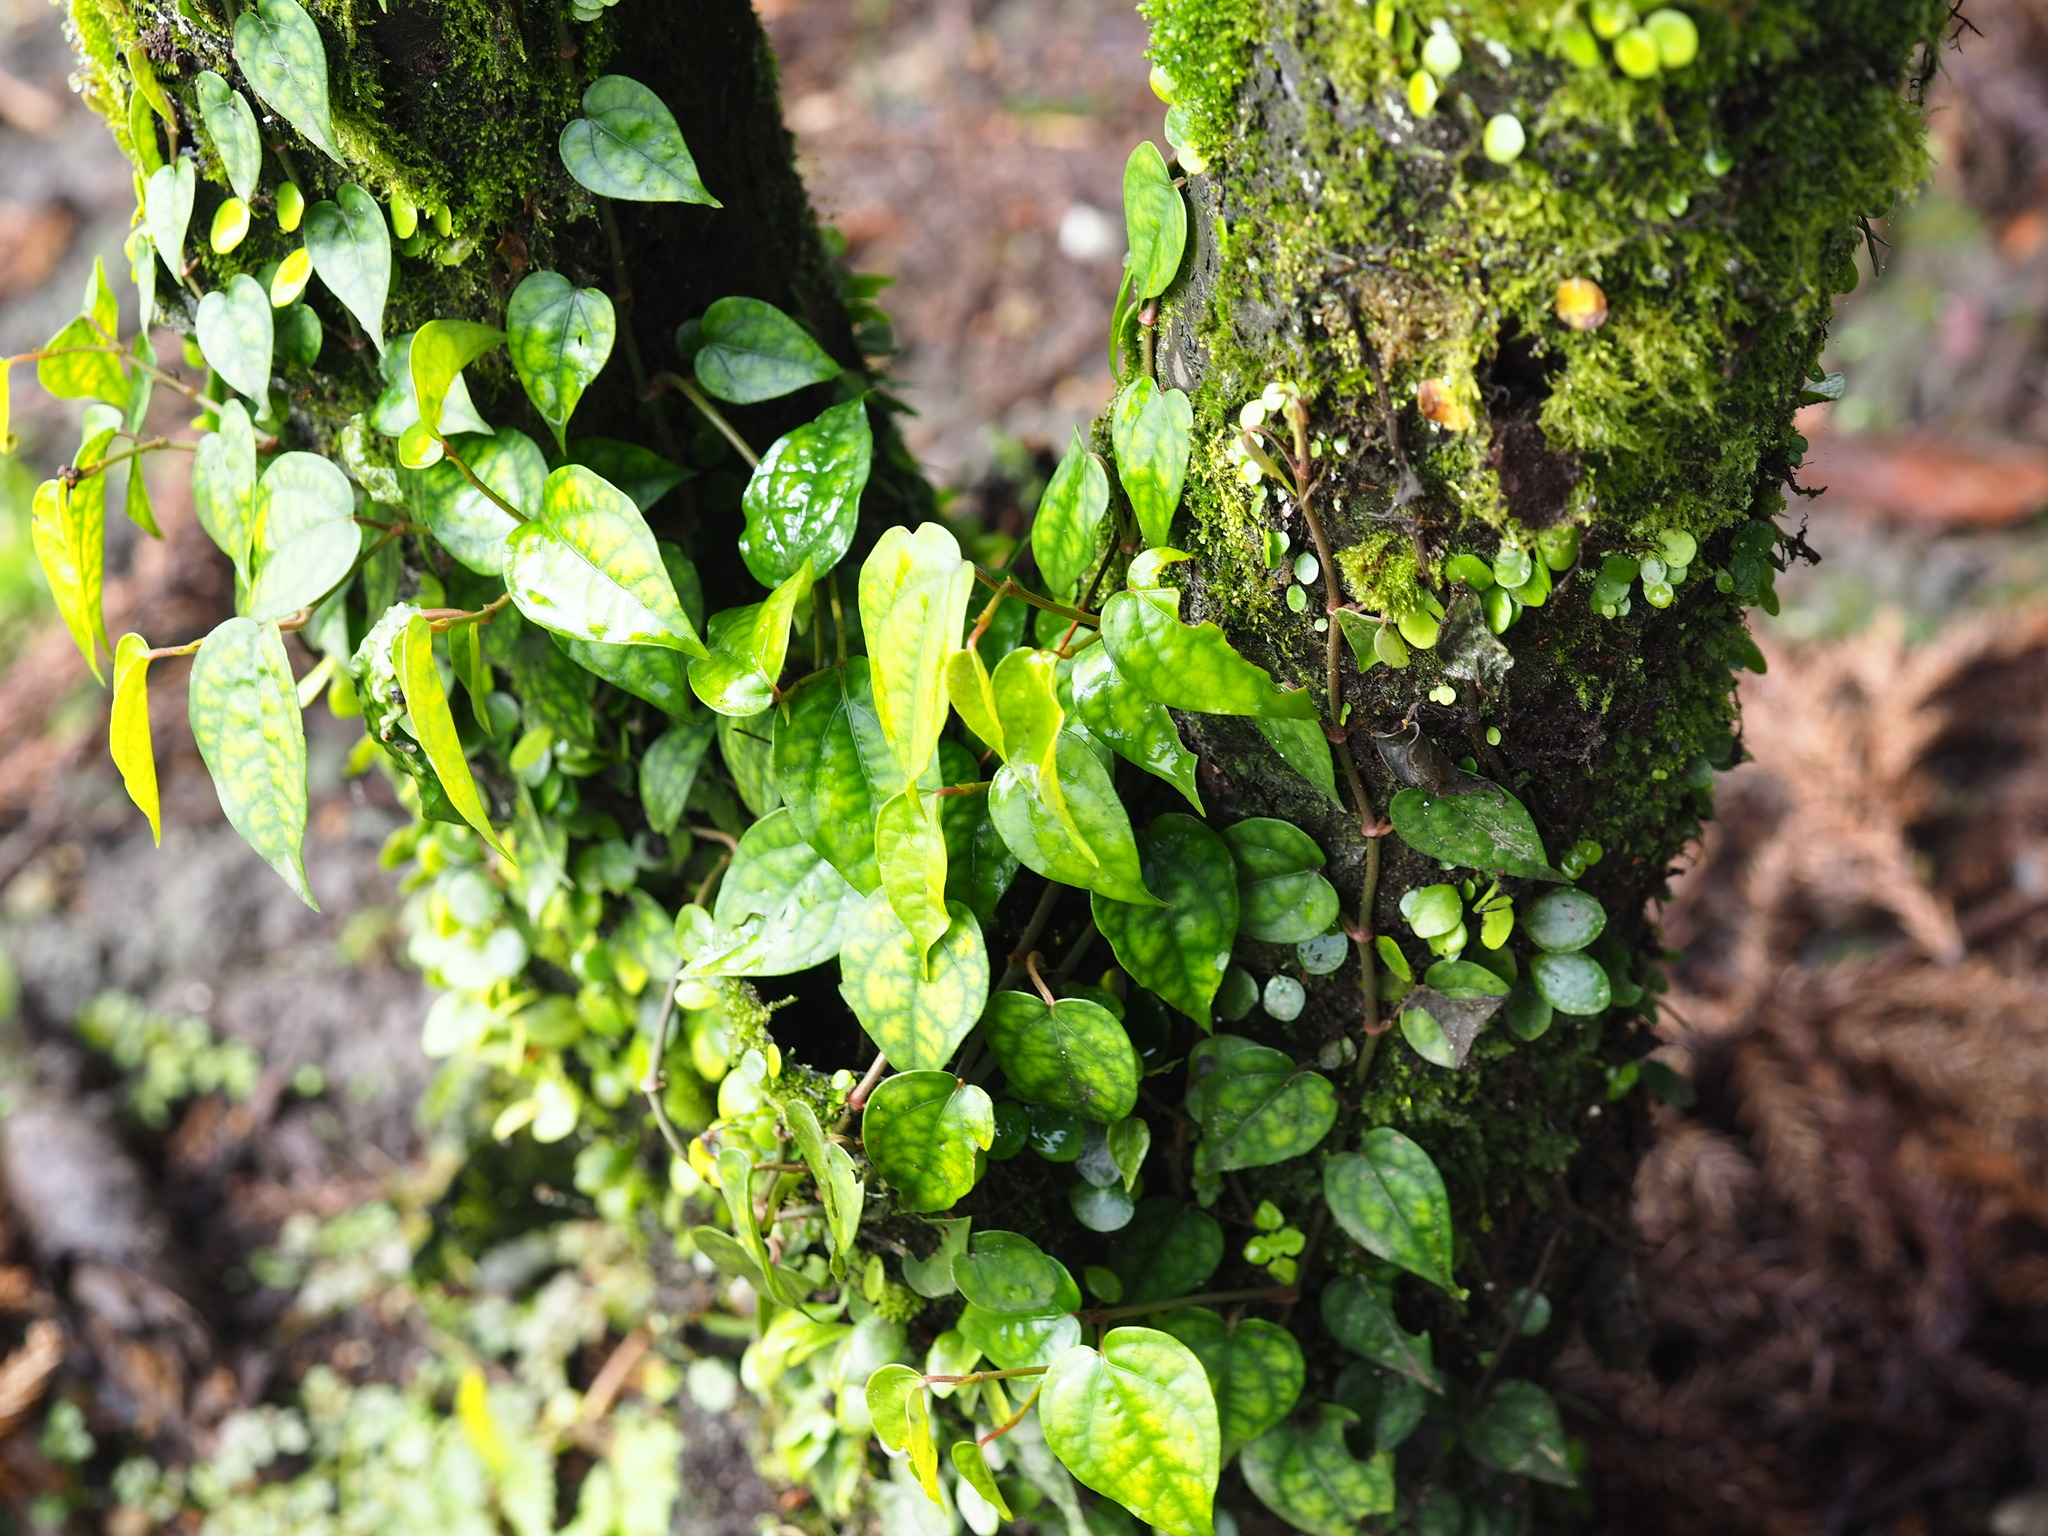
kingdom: Plantae
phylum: Tracheophyta
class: Magnoliopsida
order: Piperales
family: Piperaceae
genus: Piper
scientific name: Piper kadsura
